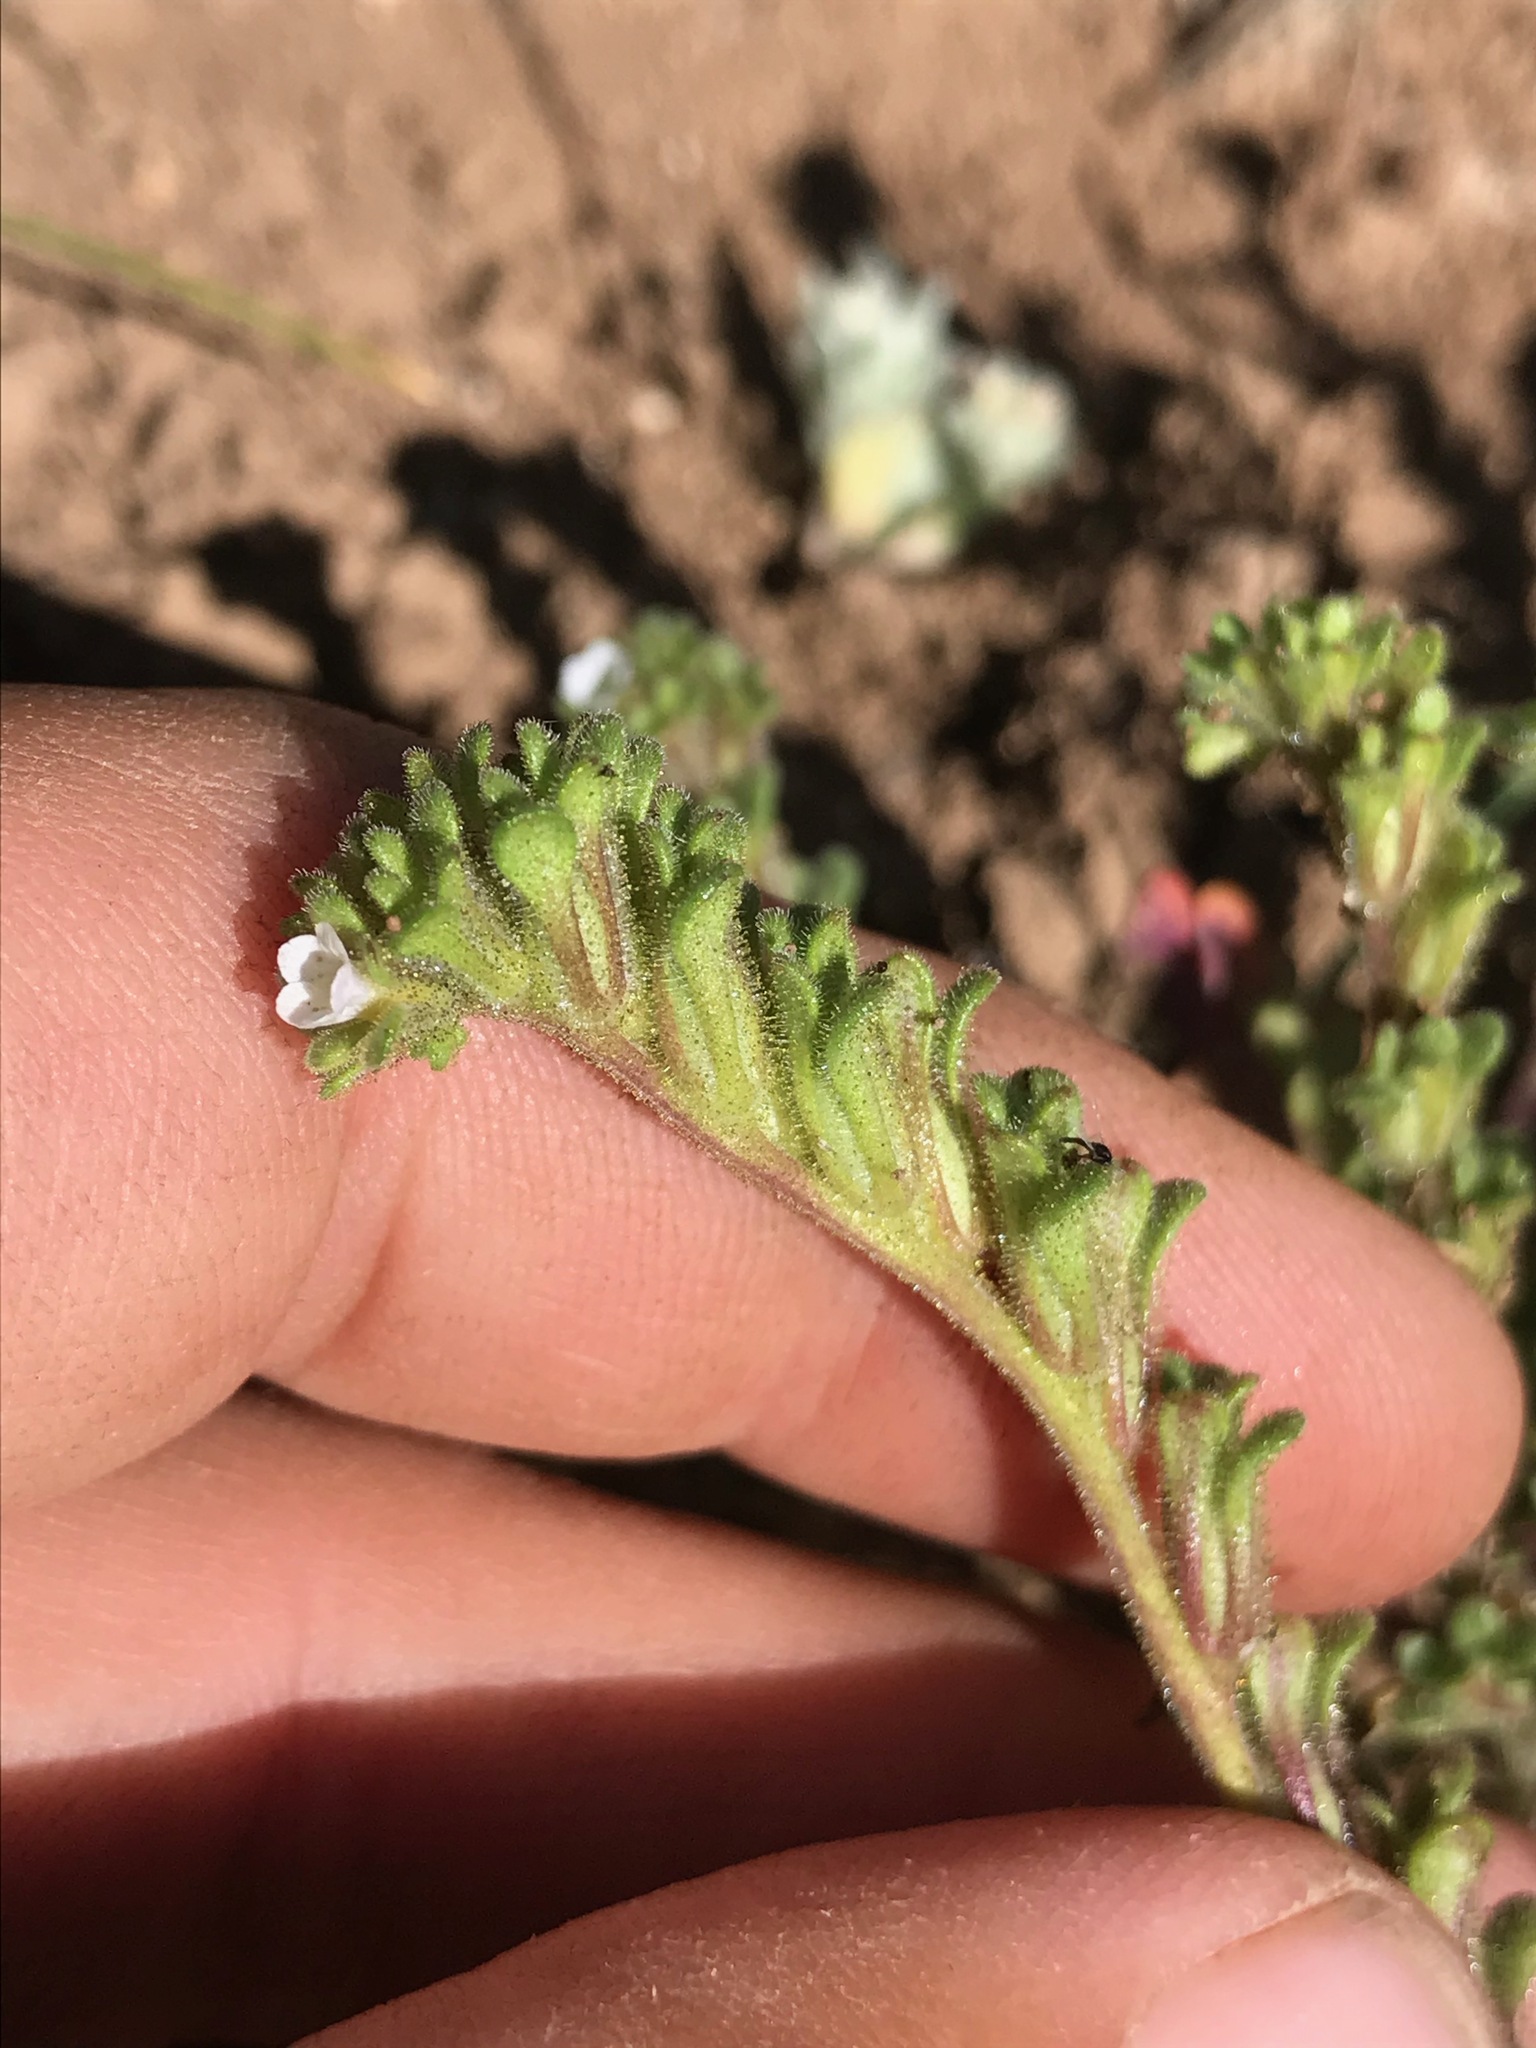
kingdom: Plantae
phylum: Tracheophyta
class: Magnoliopsida
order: Boraginales
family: Hydrophyllaceae
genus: Phacelia
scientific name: Phacelia affinis
